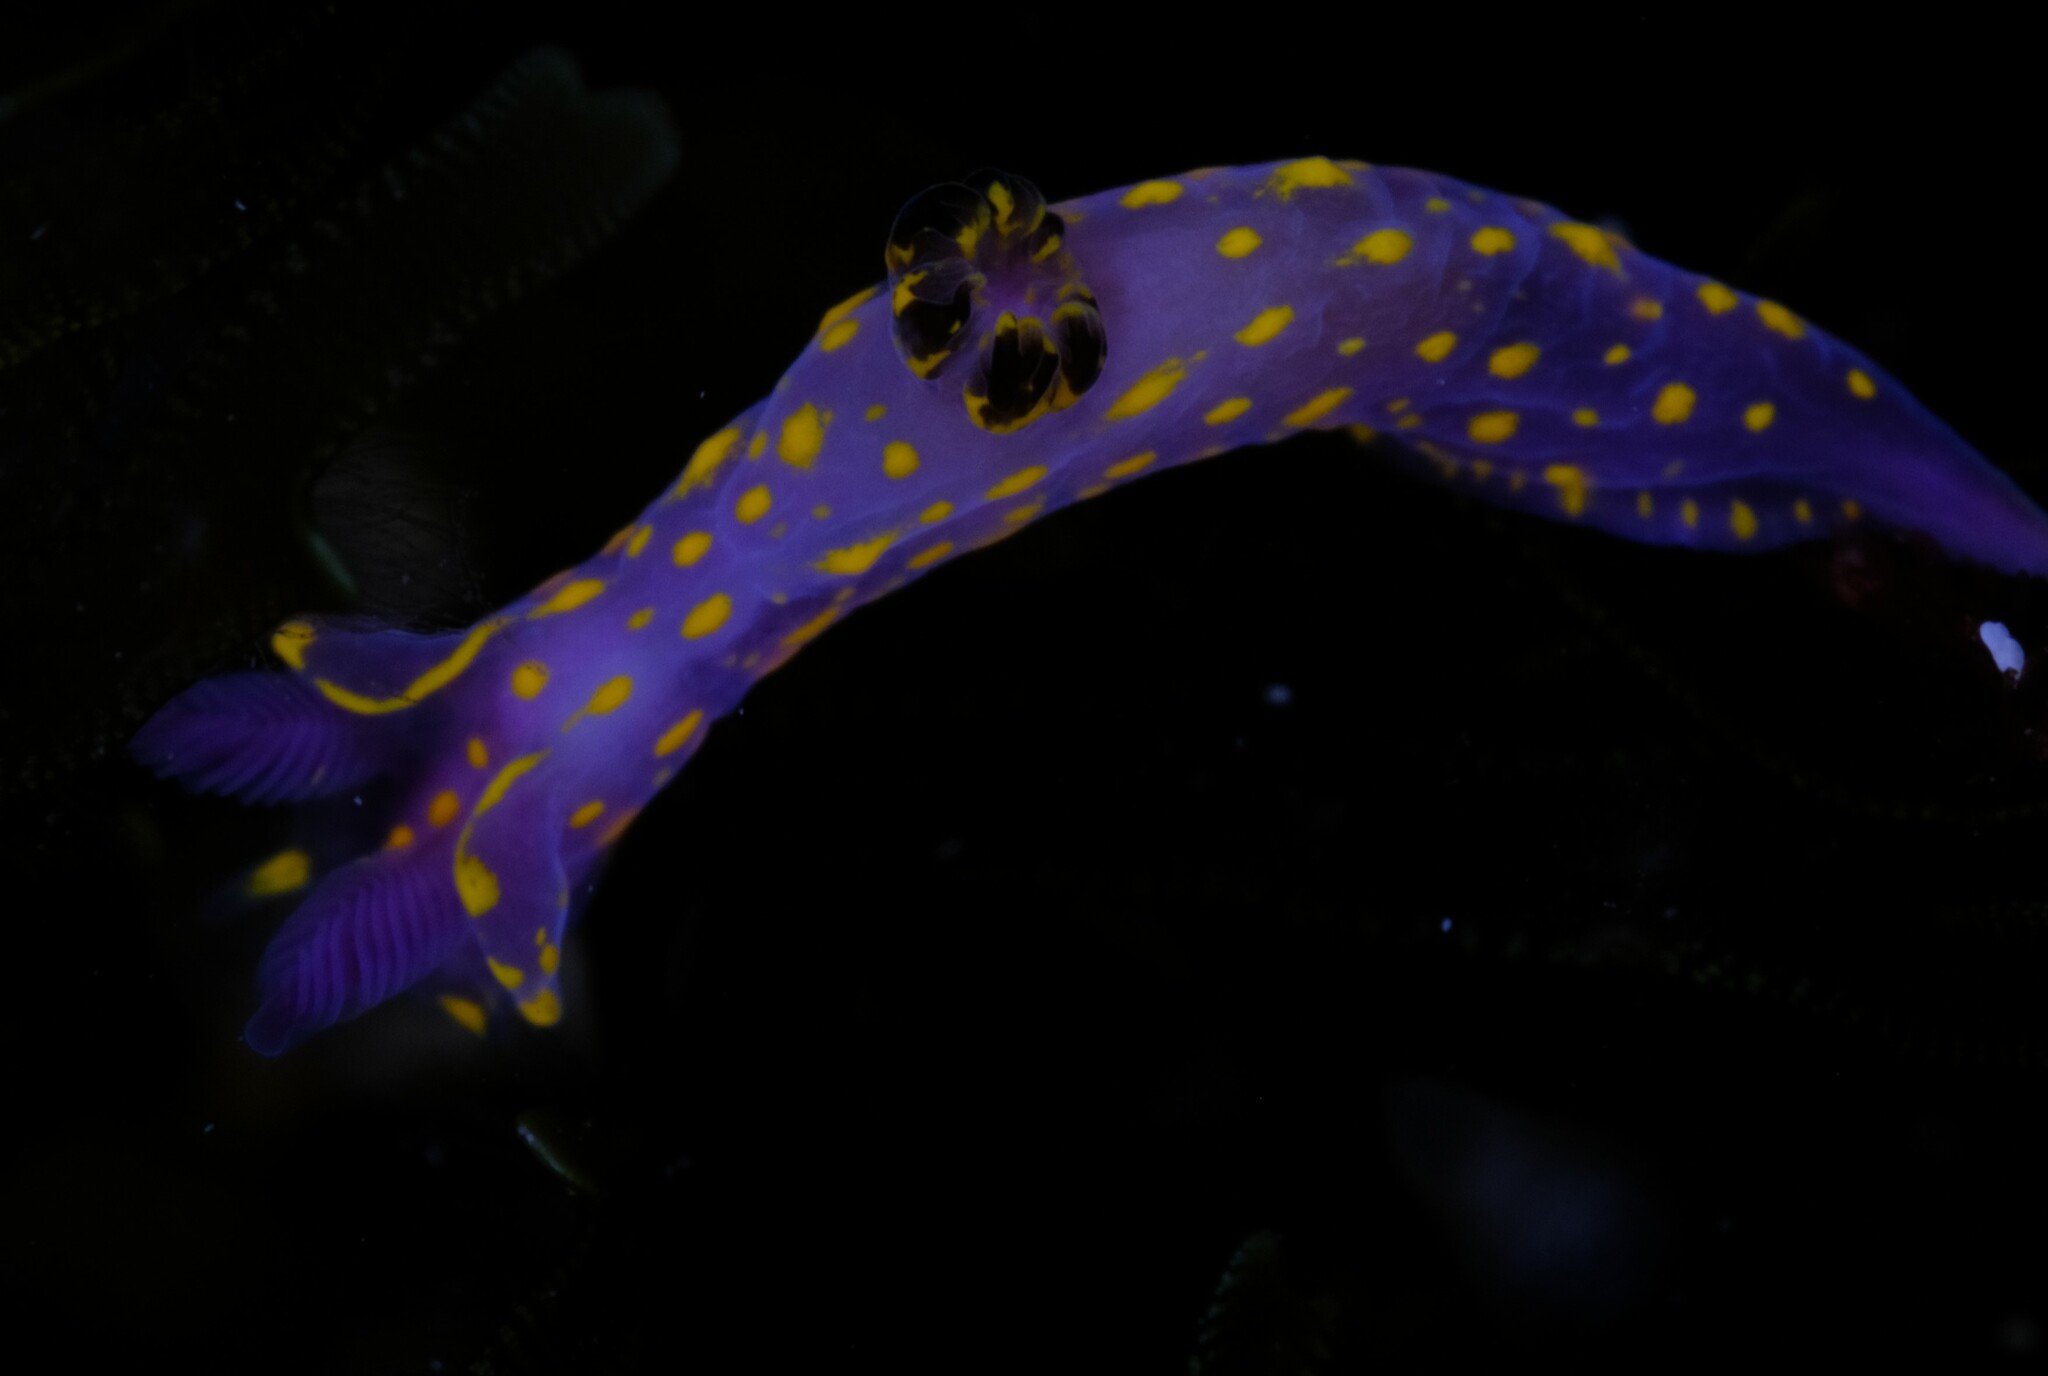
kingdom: Animalia
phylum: Mollusca
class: Gastropoda
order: Nudibranchia
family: Polyceridae
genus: Polycera
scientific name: Polycera janjukia
